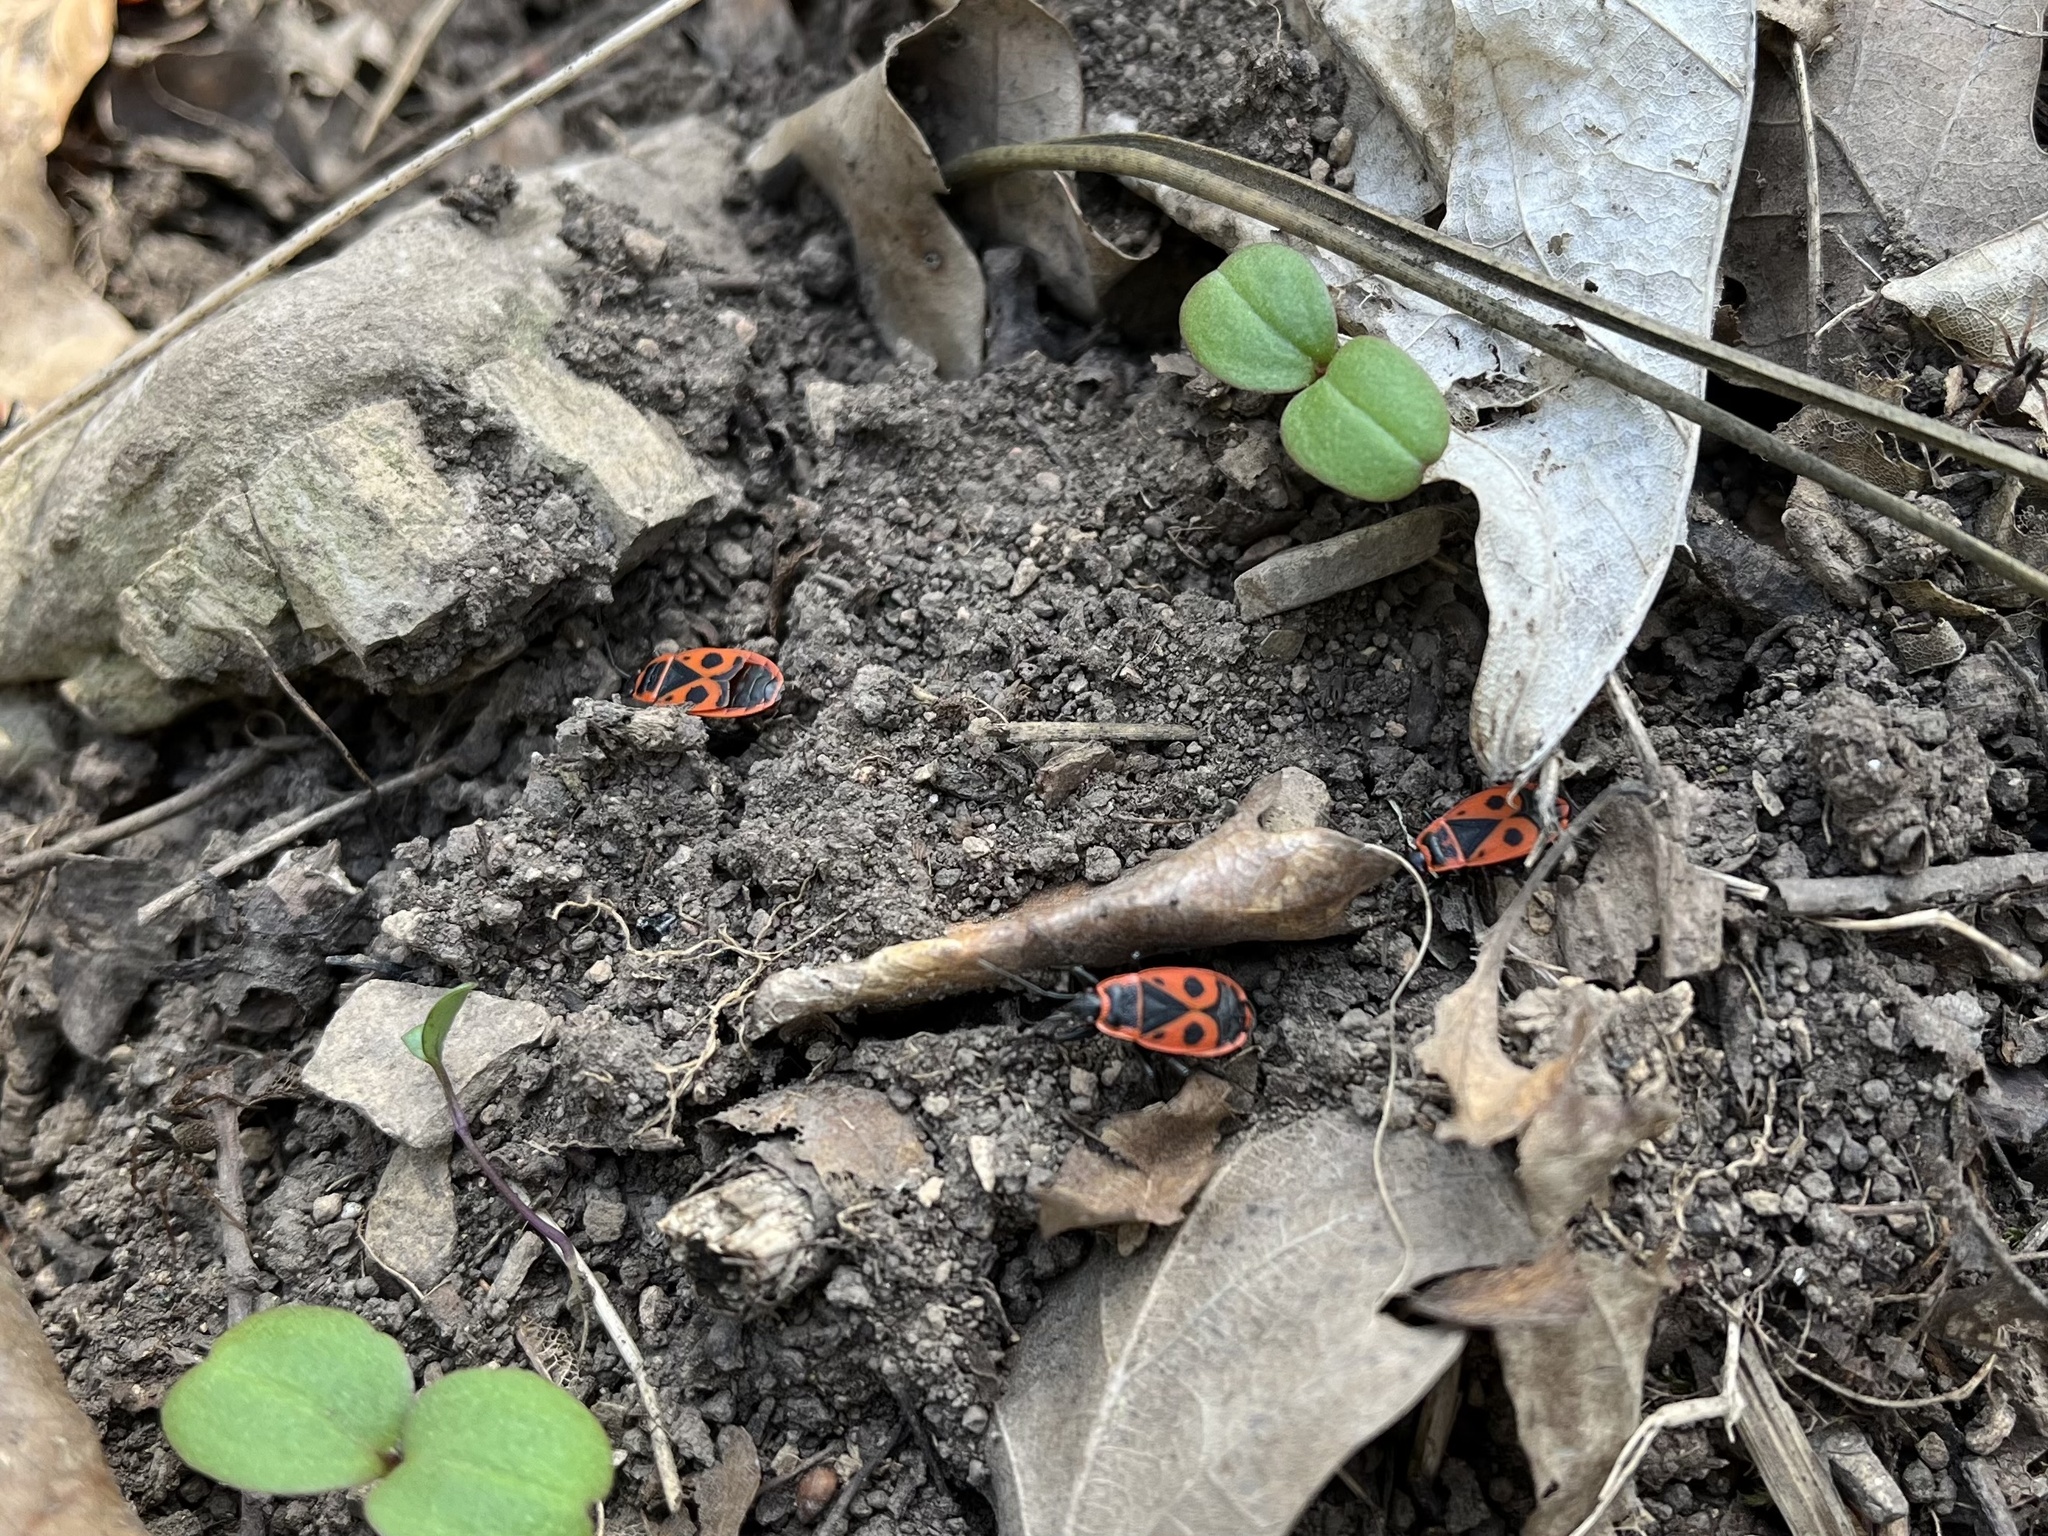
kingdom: Animalia
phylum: Arthropoda
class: Insecta
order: Hemiptera
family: Pyrrhocoridae
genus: Pyrrhocoris
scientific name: Pyrrhocoris apterus
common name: Firebug
